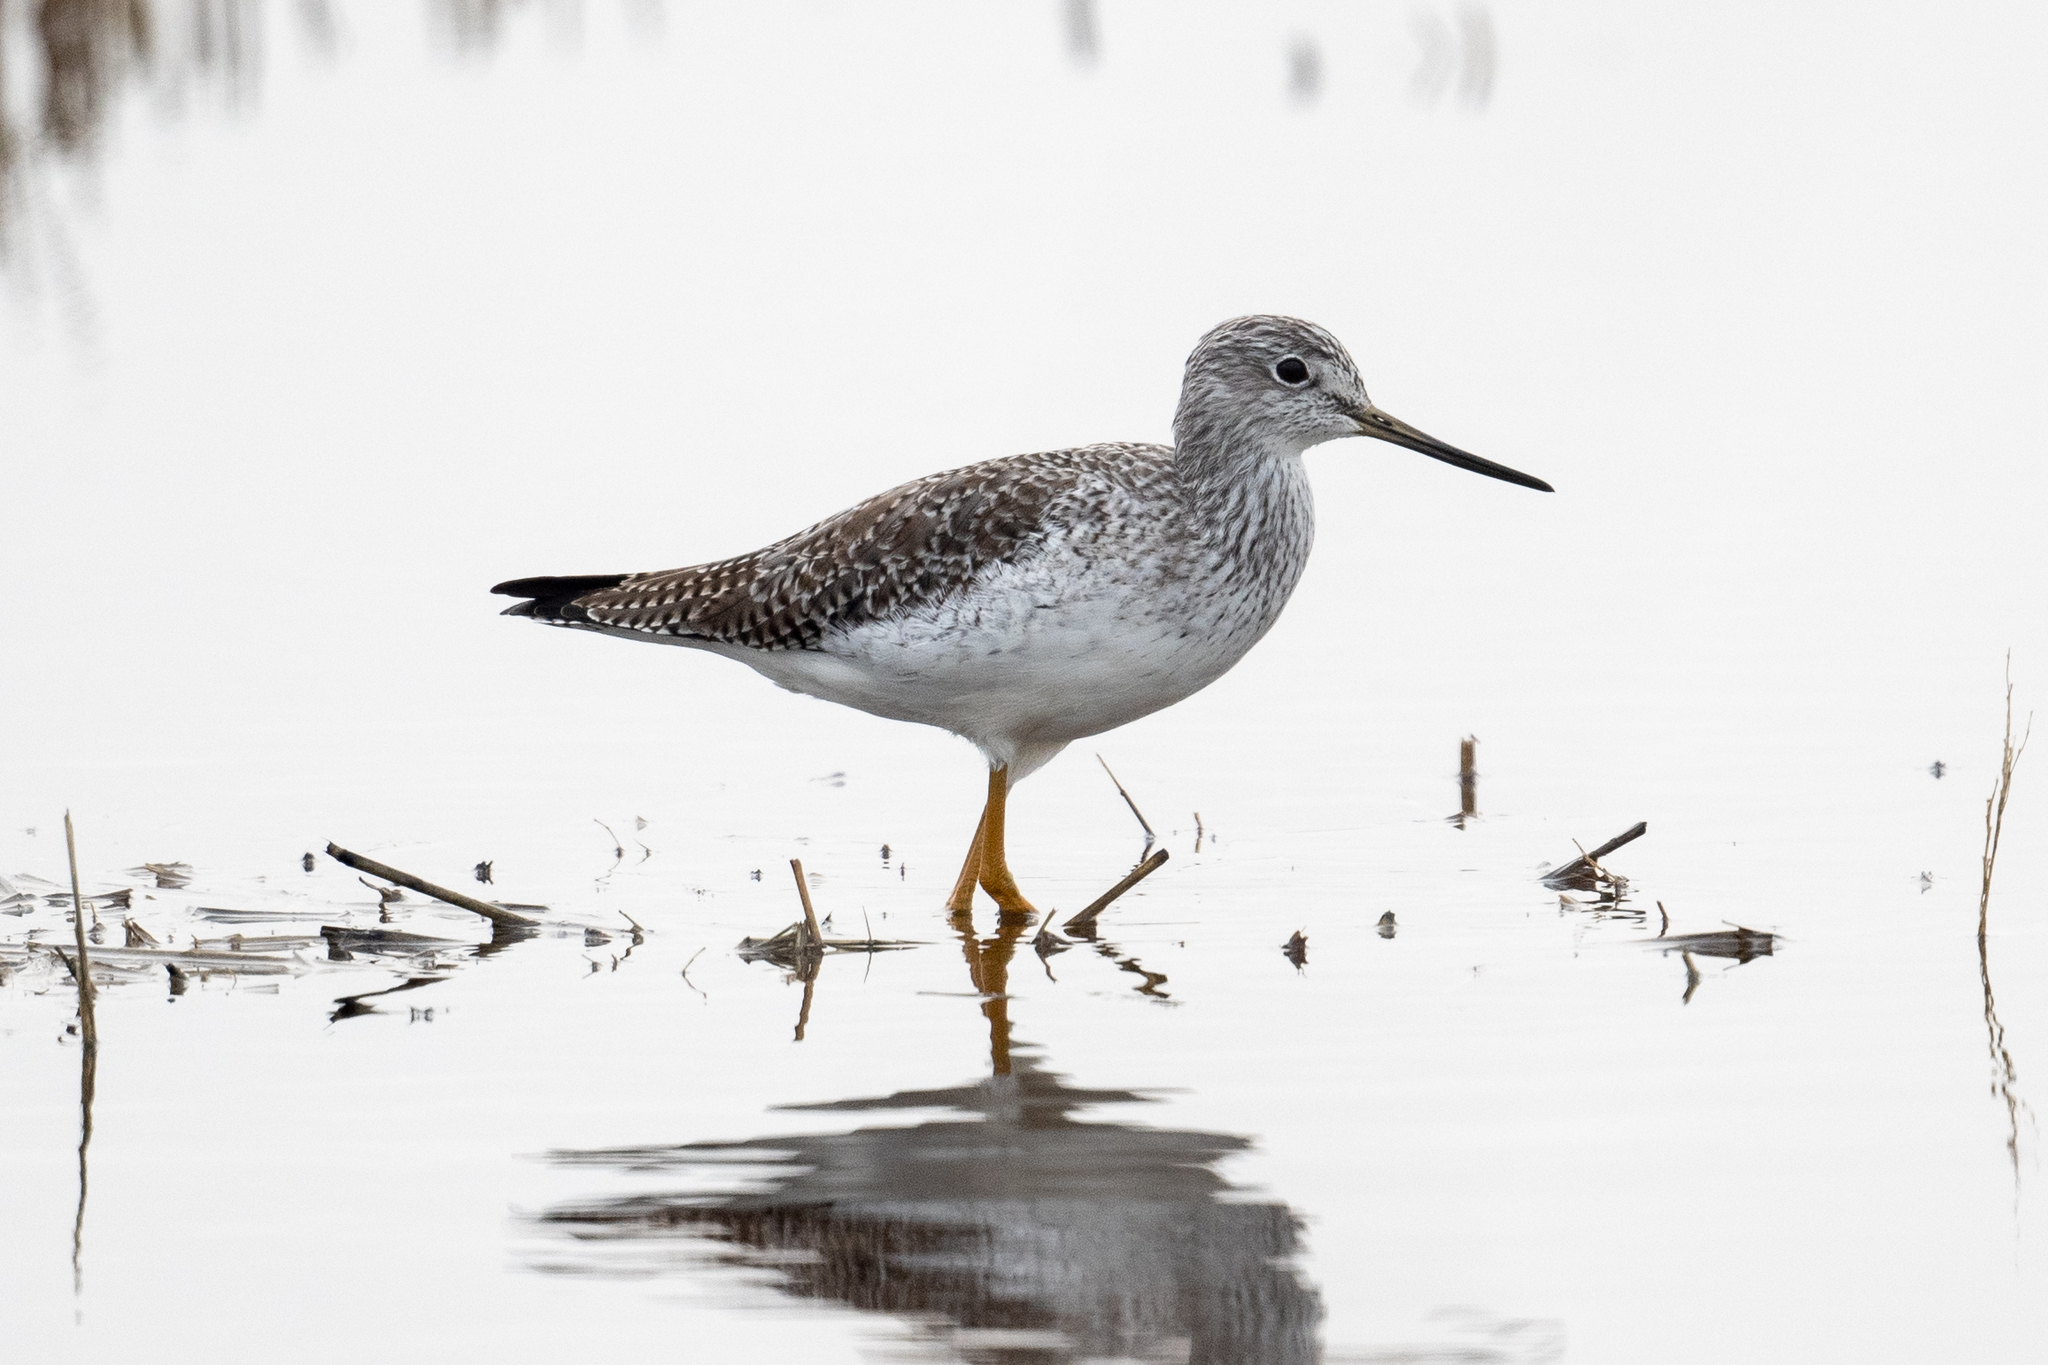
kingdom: Animalia
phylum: Chordata
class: Aves
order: Charadriiformes
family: Scolopacidae
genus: Tringa
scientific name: Tringa melanoleuca
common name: Greater yellowlegs
